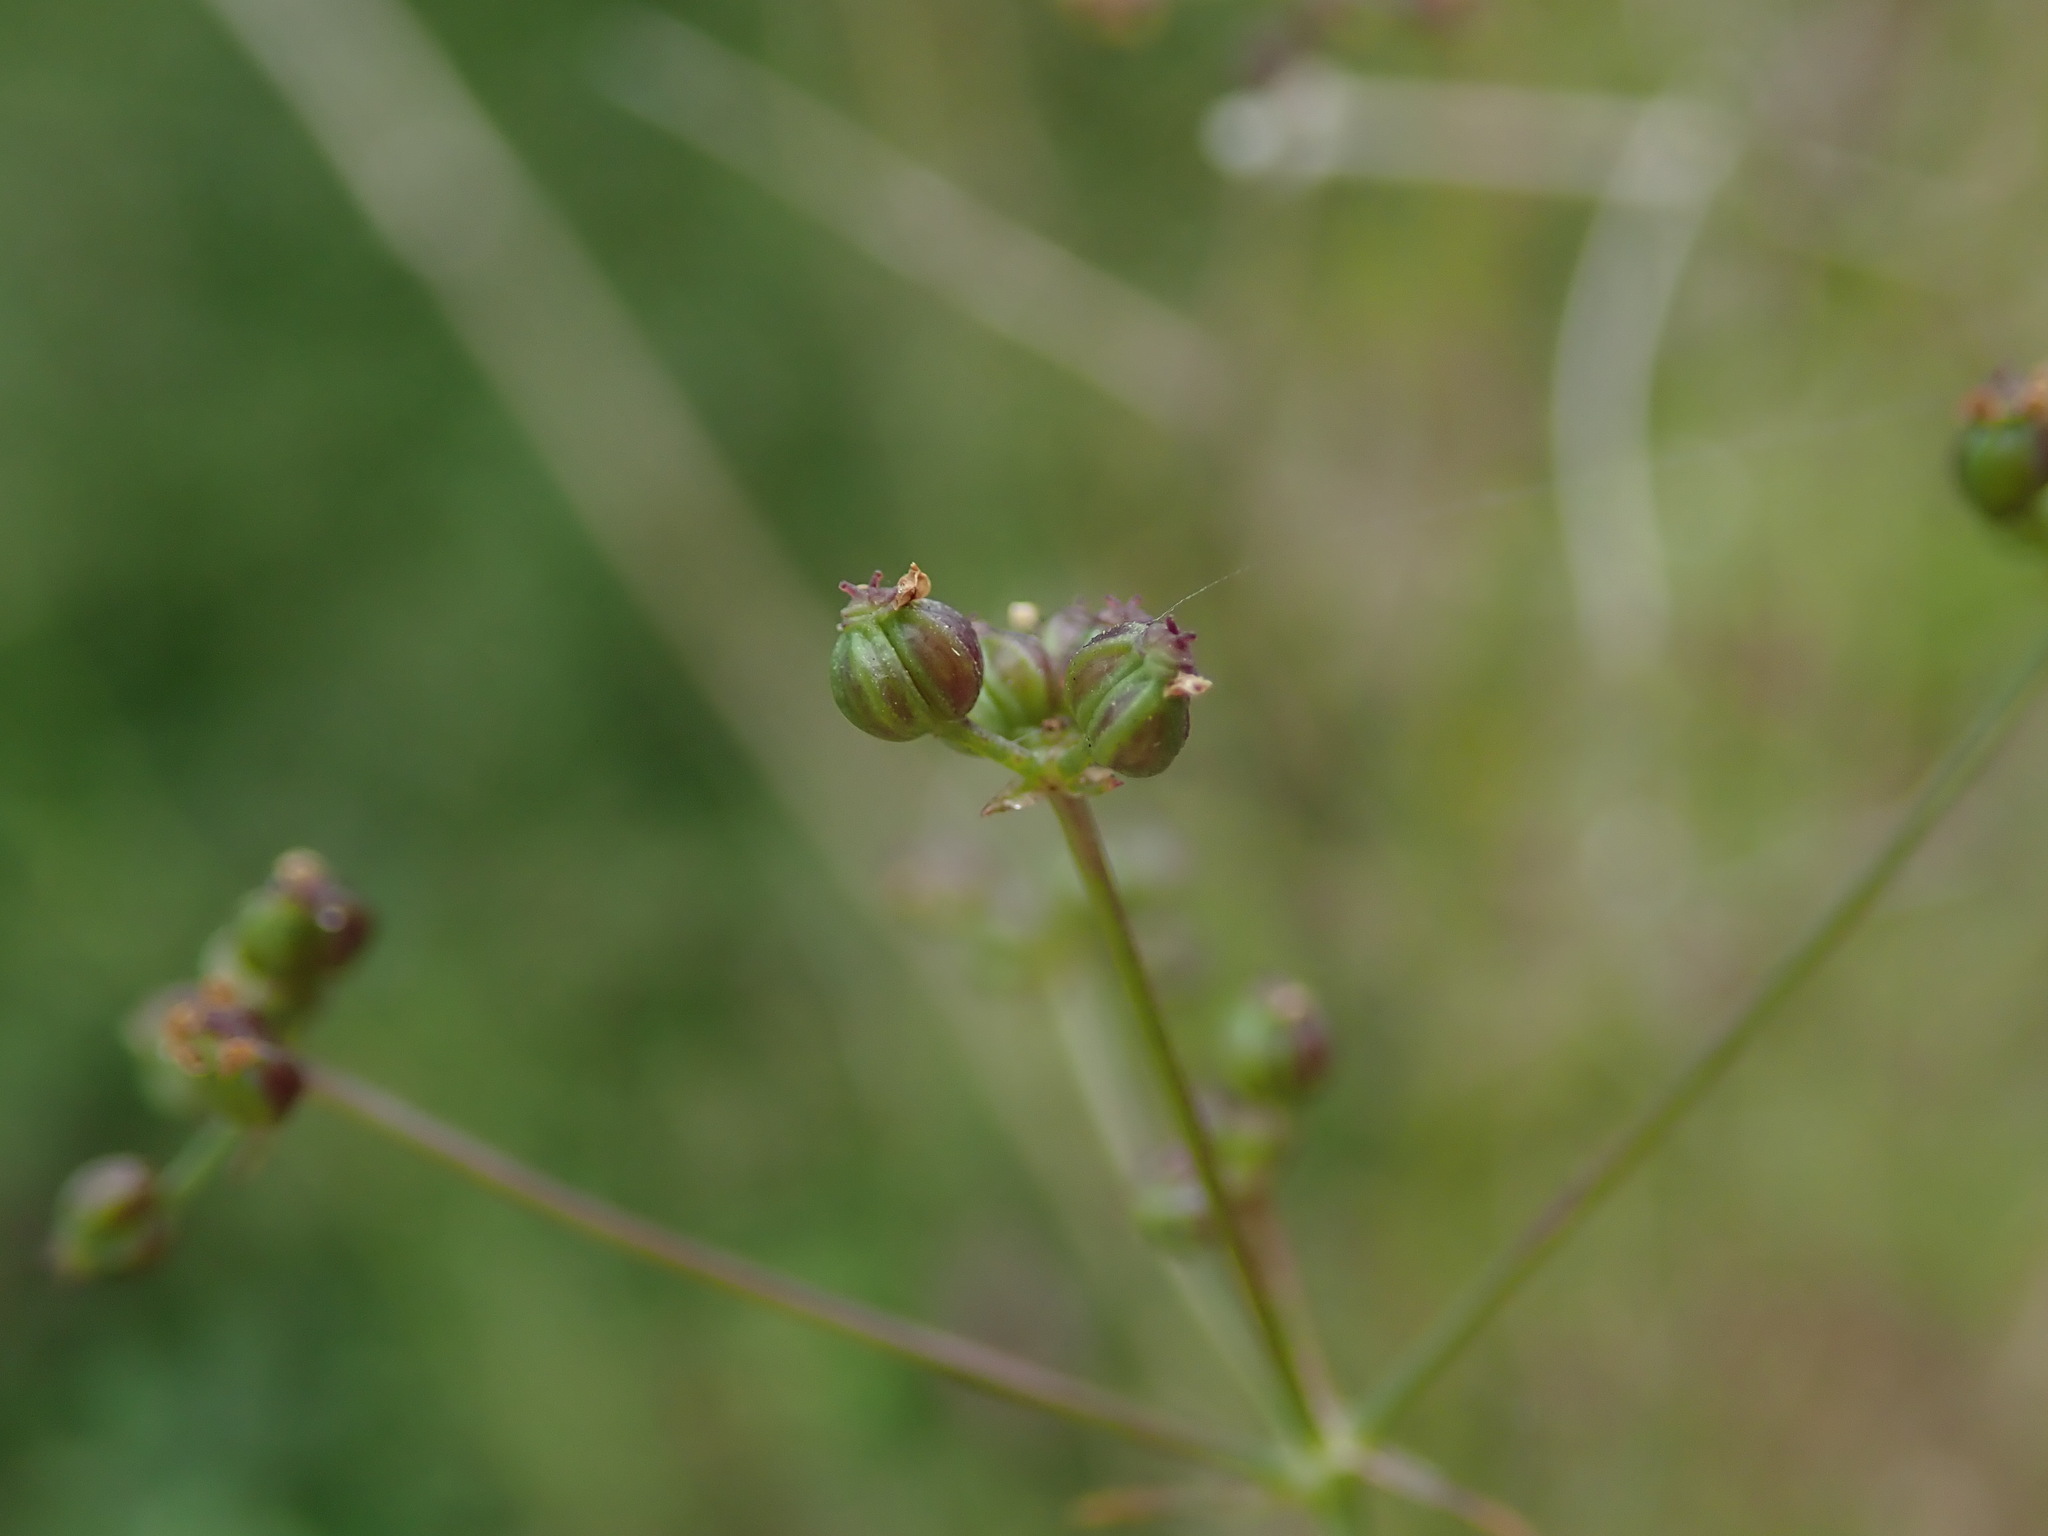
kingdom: Plantae
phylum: Tracheophyta
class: Magnoliopsida
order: Apiales
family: Apiaceae
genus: Sison
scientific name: Sison amomum
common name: Stone-parsley
